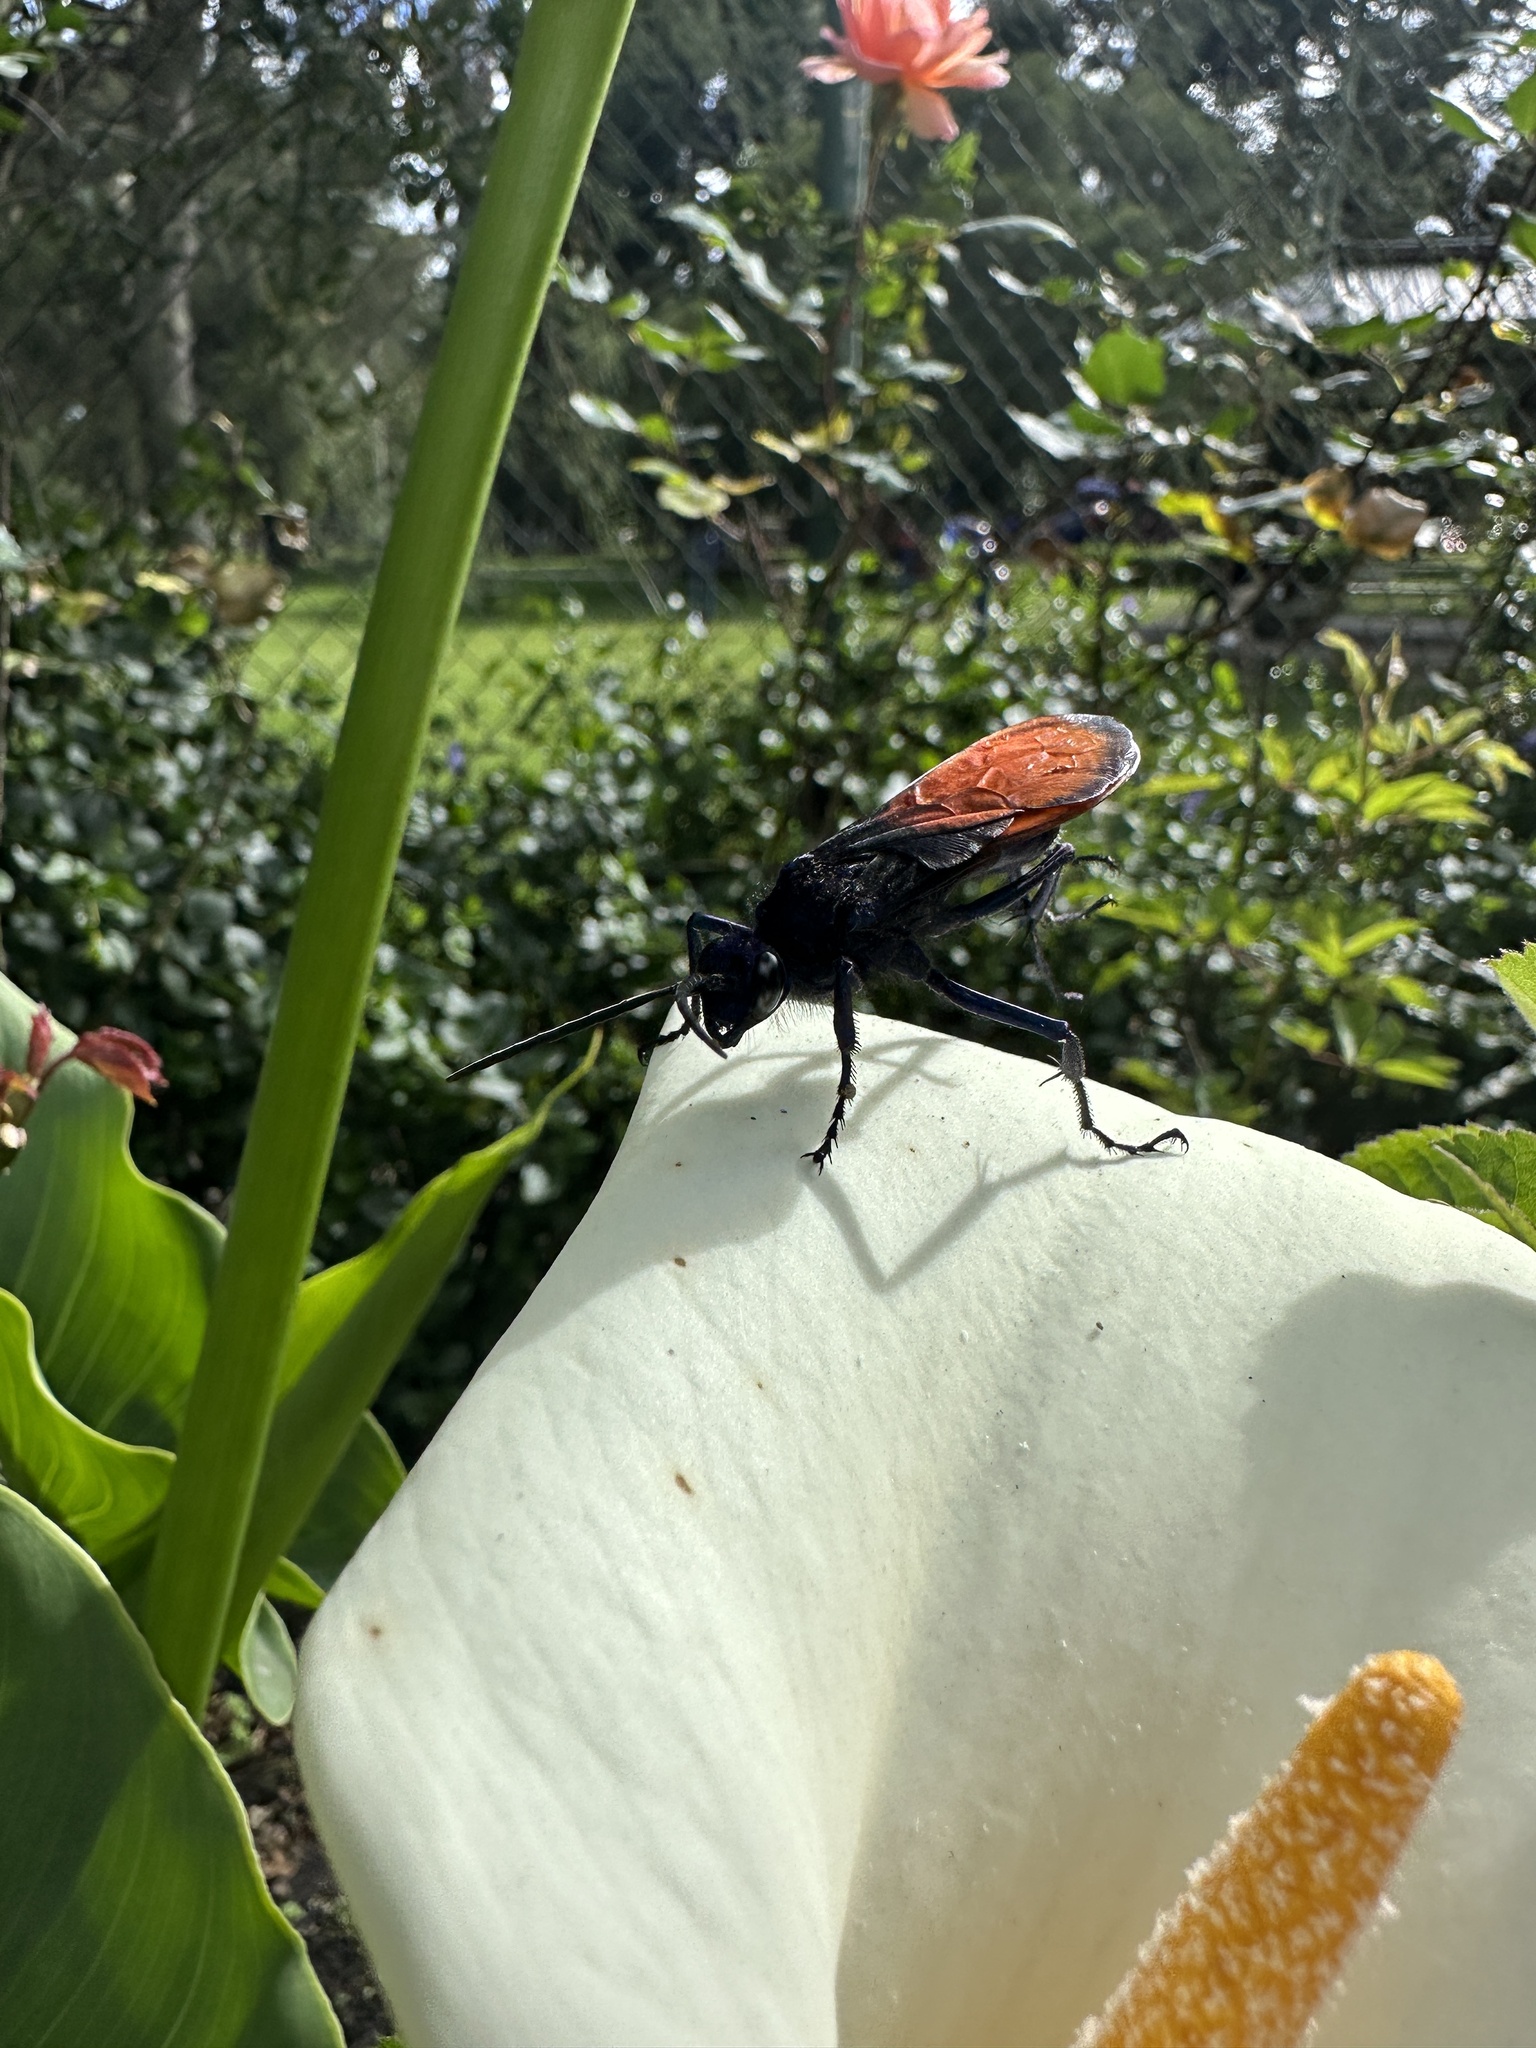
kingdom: Animalia
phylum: Arthropoda
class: Insecta
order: Hymenoptera
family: Pompilidae
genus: Pepsis
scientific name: Pepsis grossa
